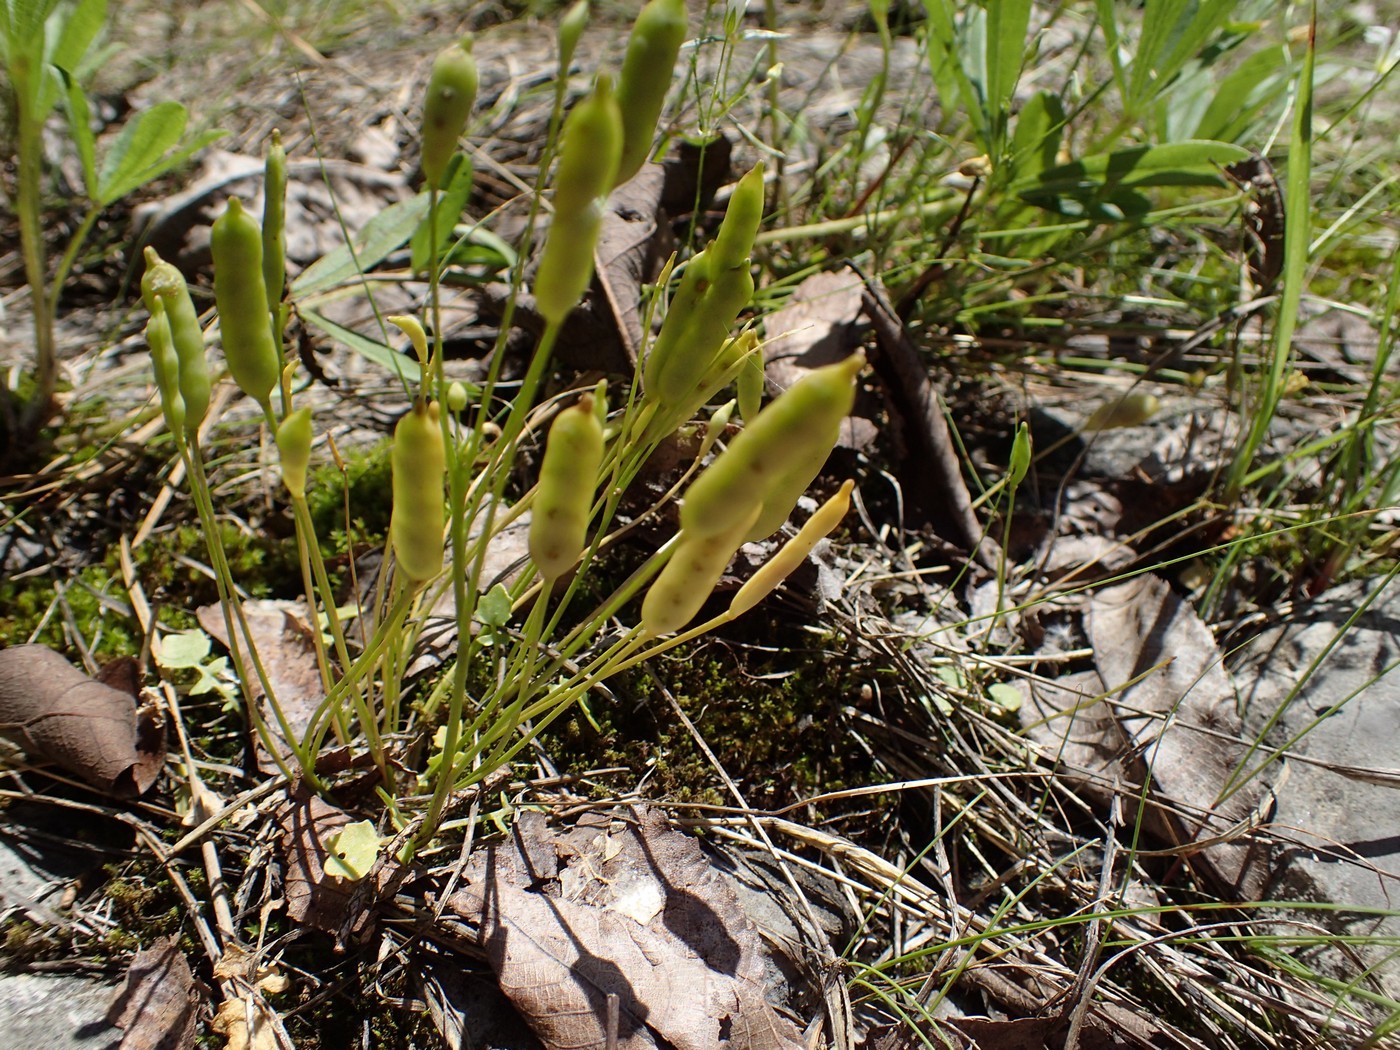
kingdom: Plantae
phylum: Tracheophyta
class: Magnoliopsida
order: Brassicales
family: Brassicaceae
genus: Leavenworthia
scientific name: Leavenworthia exigua
